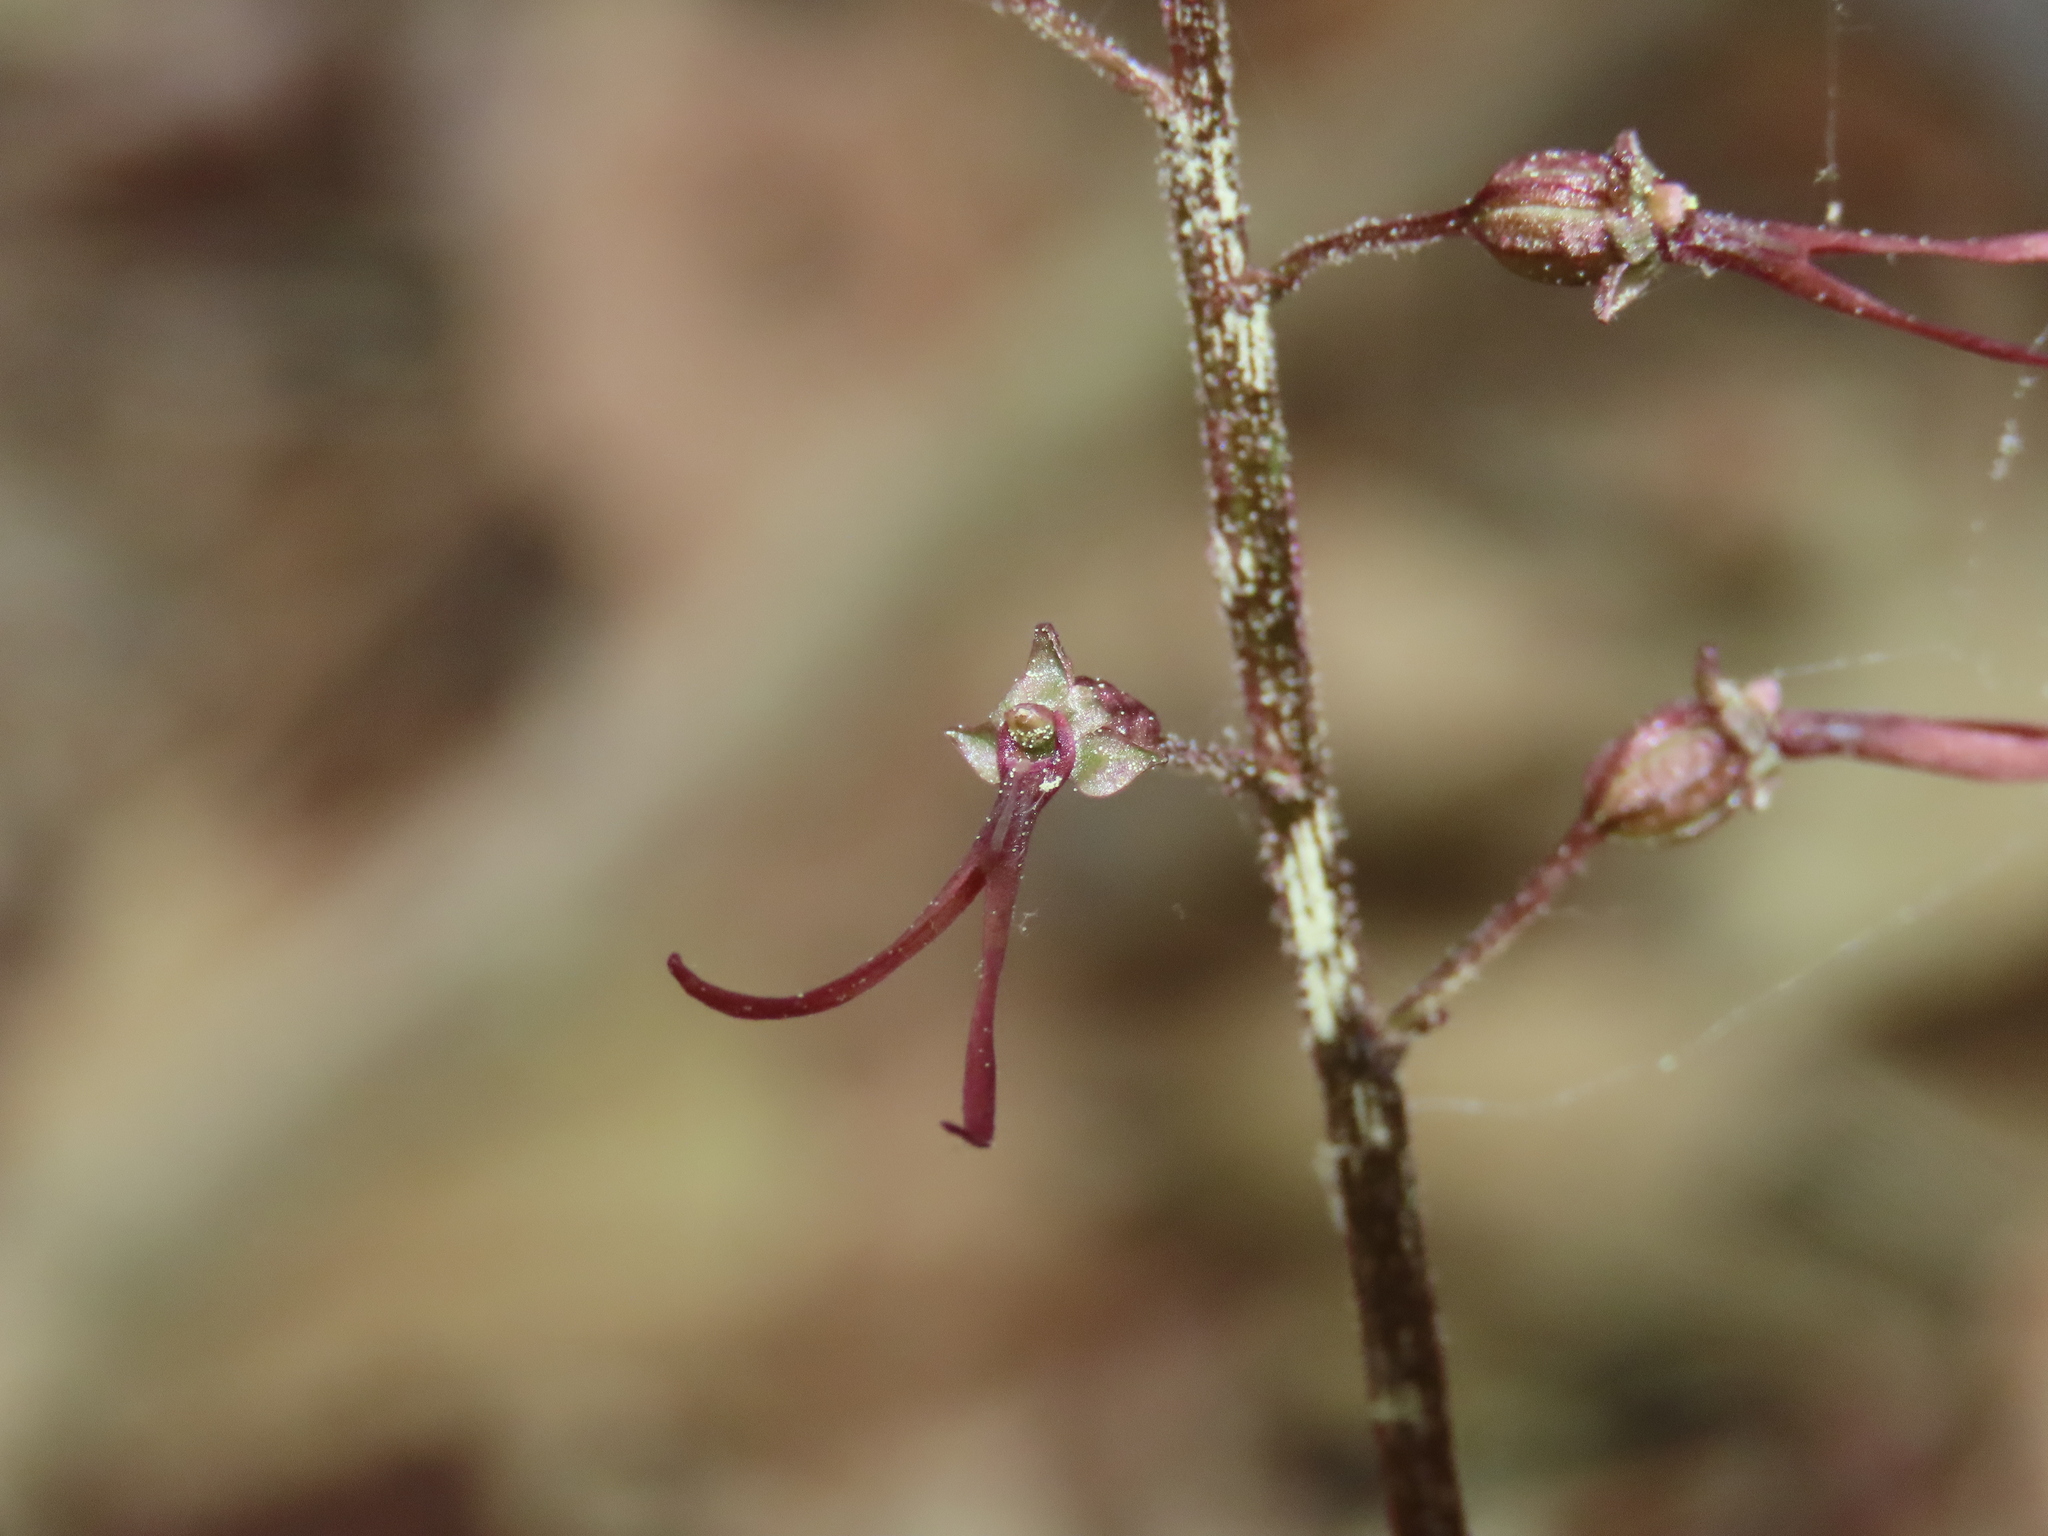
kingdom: Plantae
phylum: Tracheophyta
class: Liliopsida
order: Asparagales
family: Orchidaceae
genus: Neottia
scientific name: Neottia bifolia
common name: Southern twayblade
